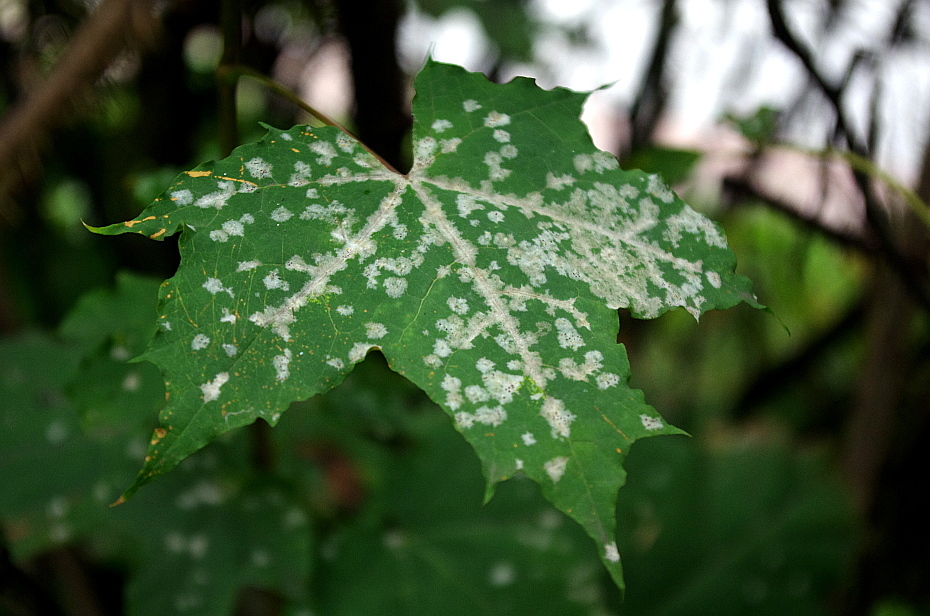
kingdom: Fungi
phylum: Ascomycota
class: Leotiomycetes
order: Helotiales
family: Erysiphaceae
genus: Sawadaea
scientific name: Sawadaea tulasnei
